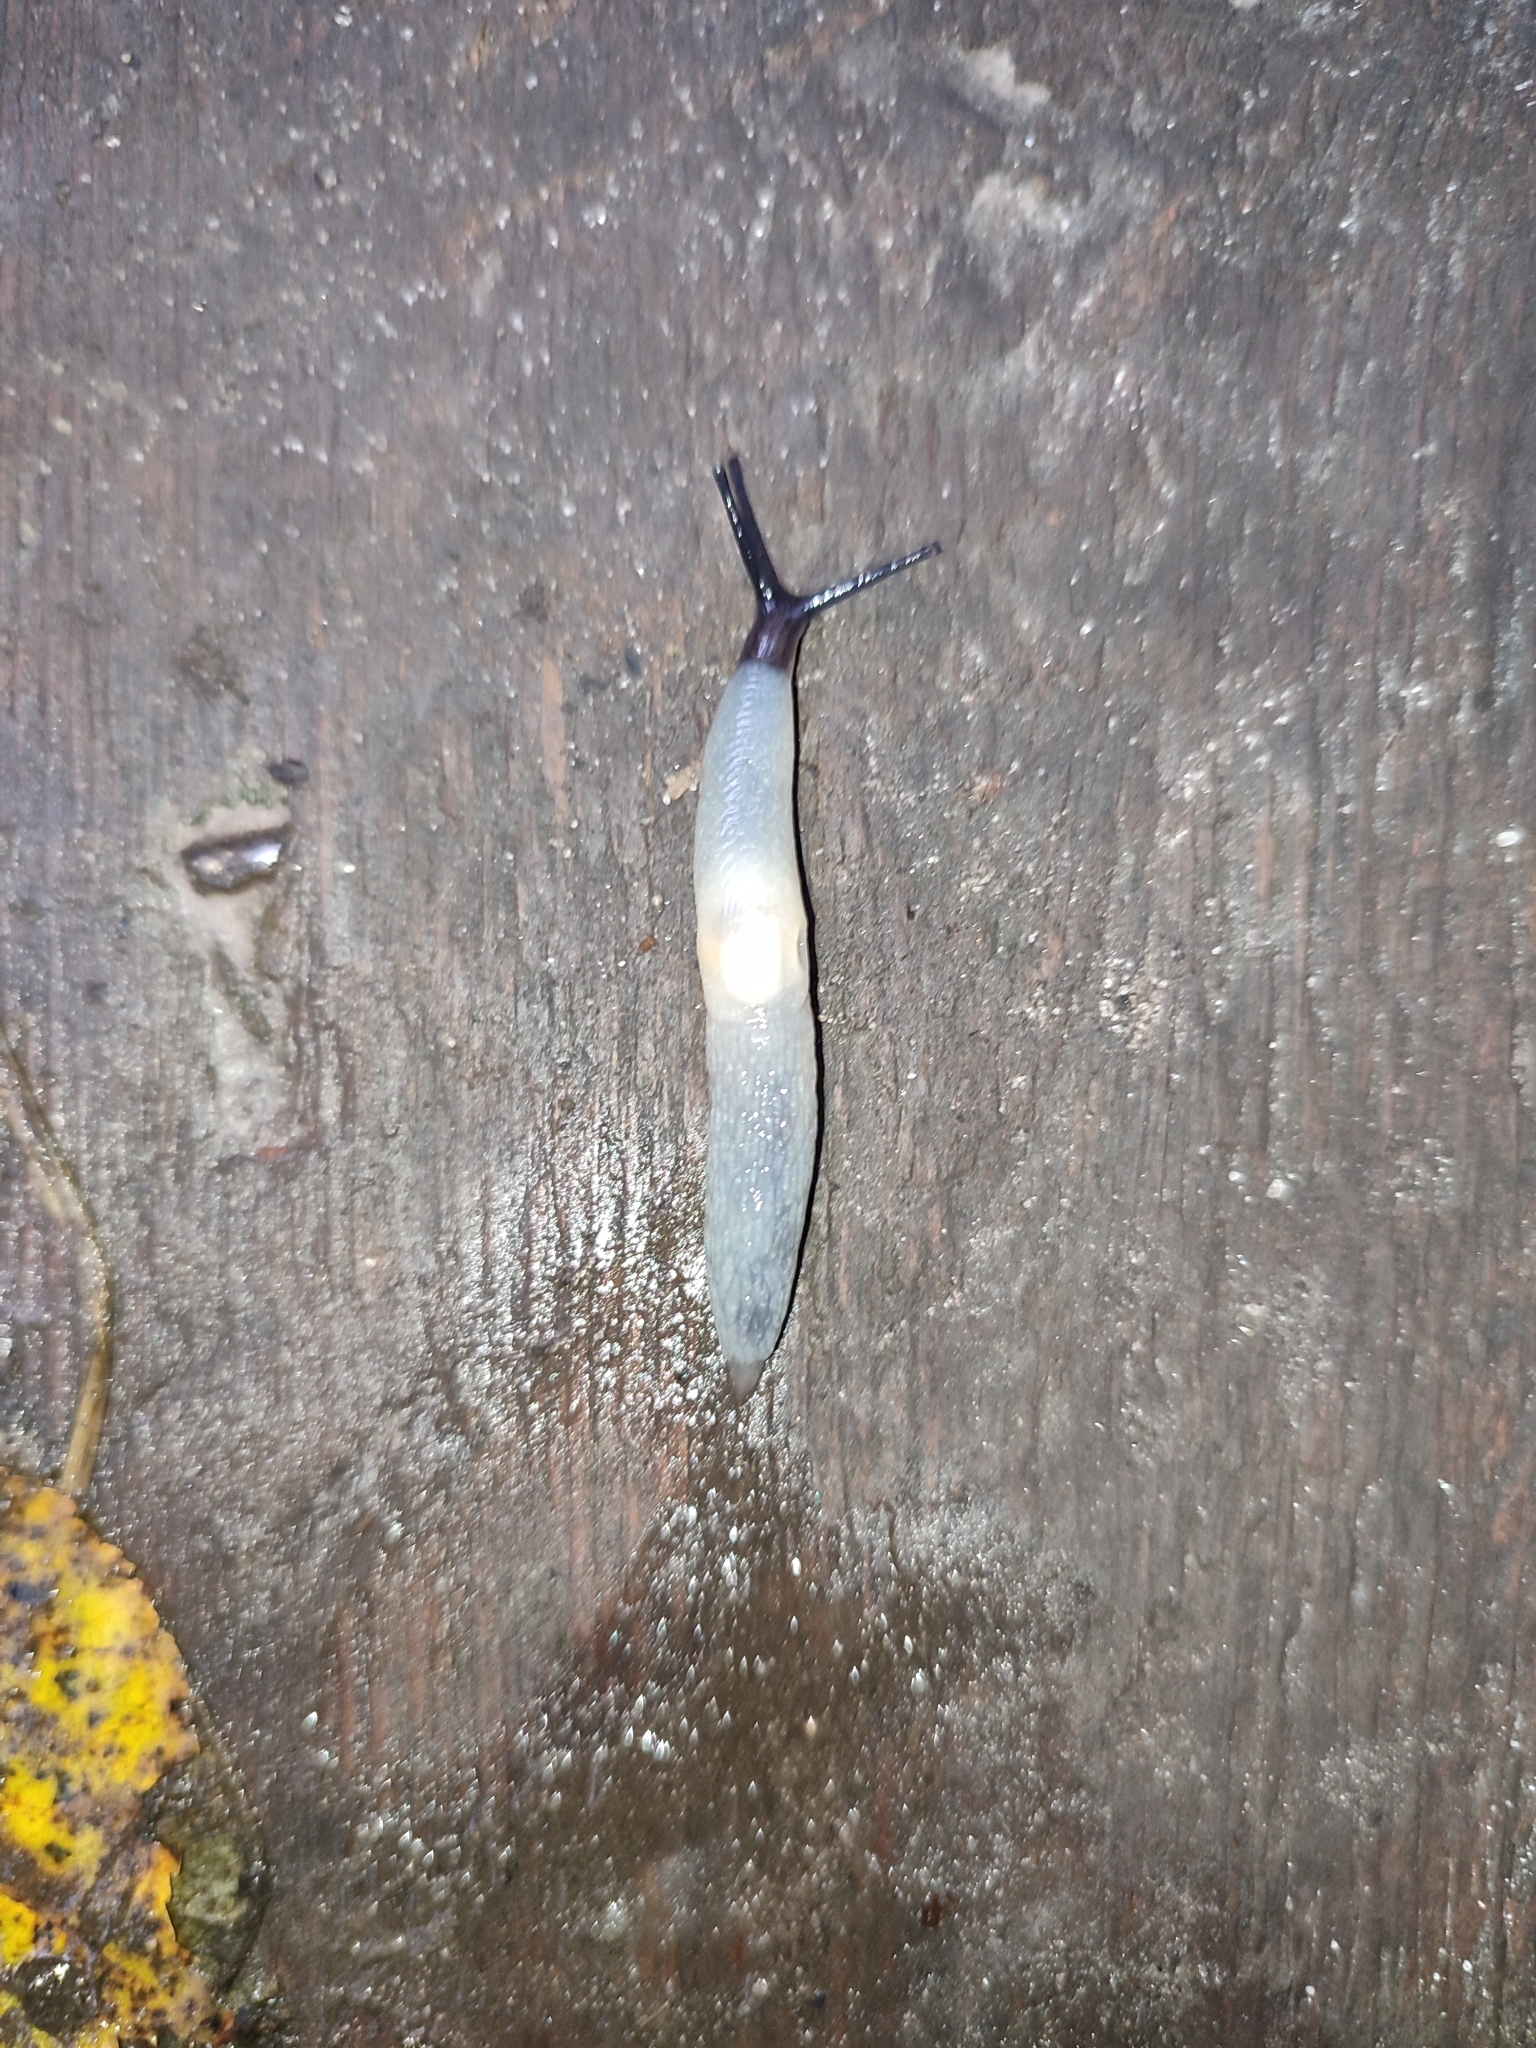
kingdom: Animalia
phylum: Mollusca
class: Gastropoda
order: Stylommatophora
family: Agriolimacidae
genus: Krynickillus
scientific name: Krynickillus melanocephalus
